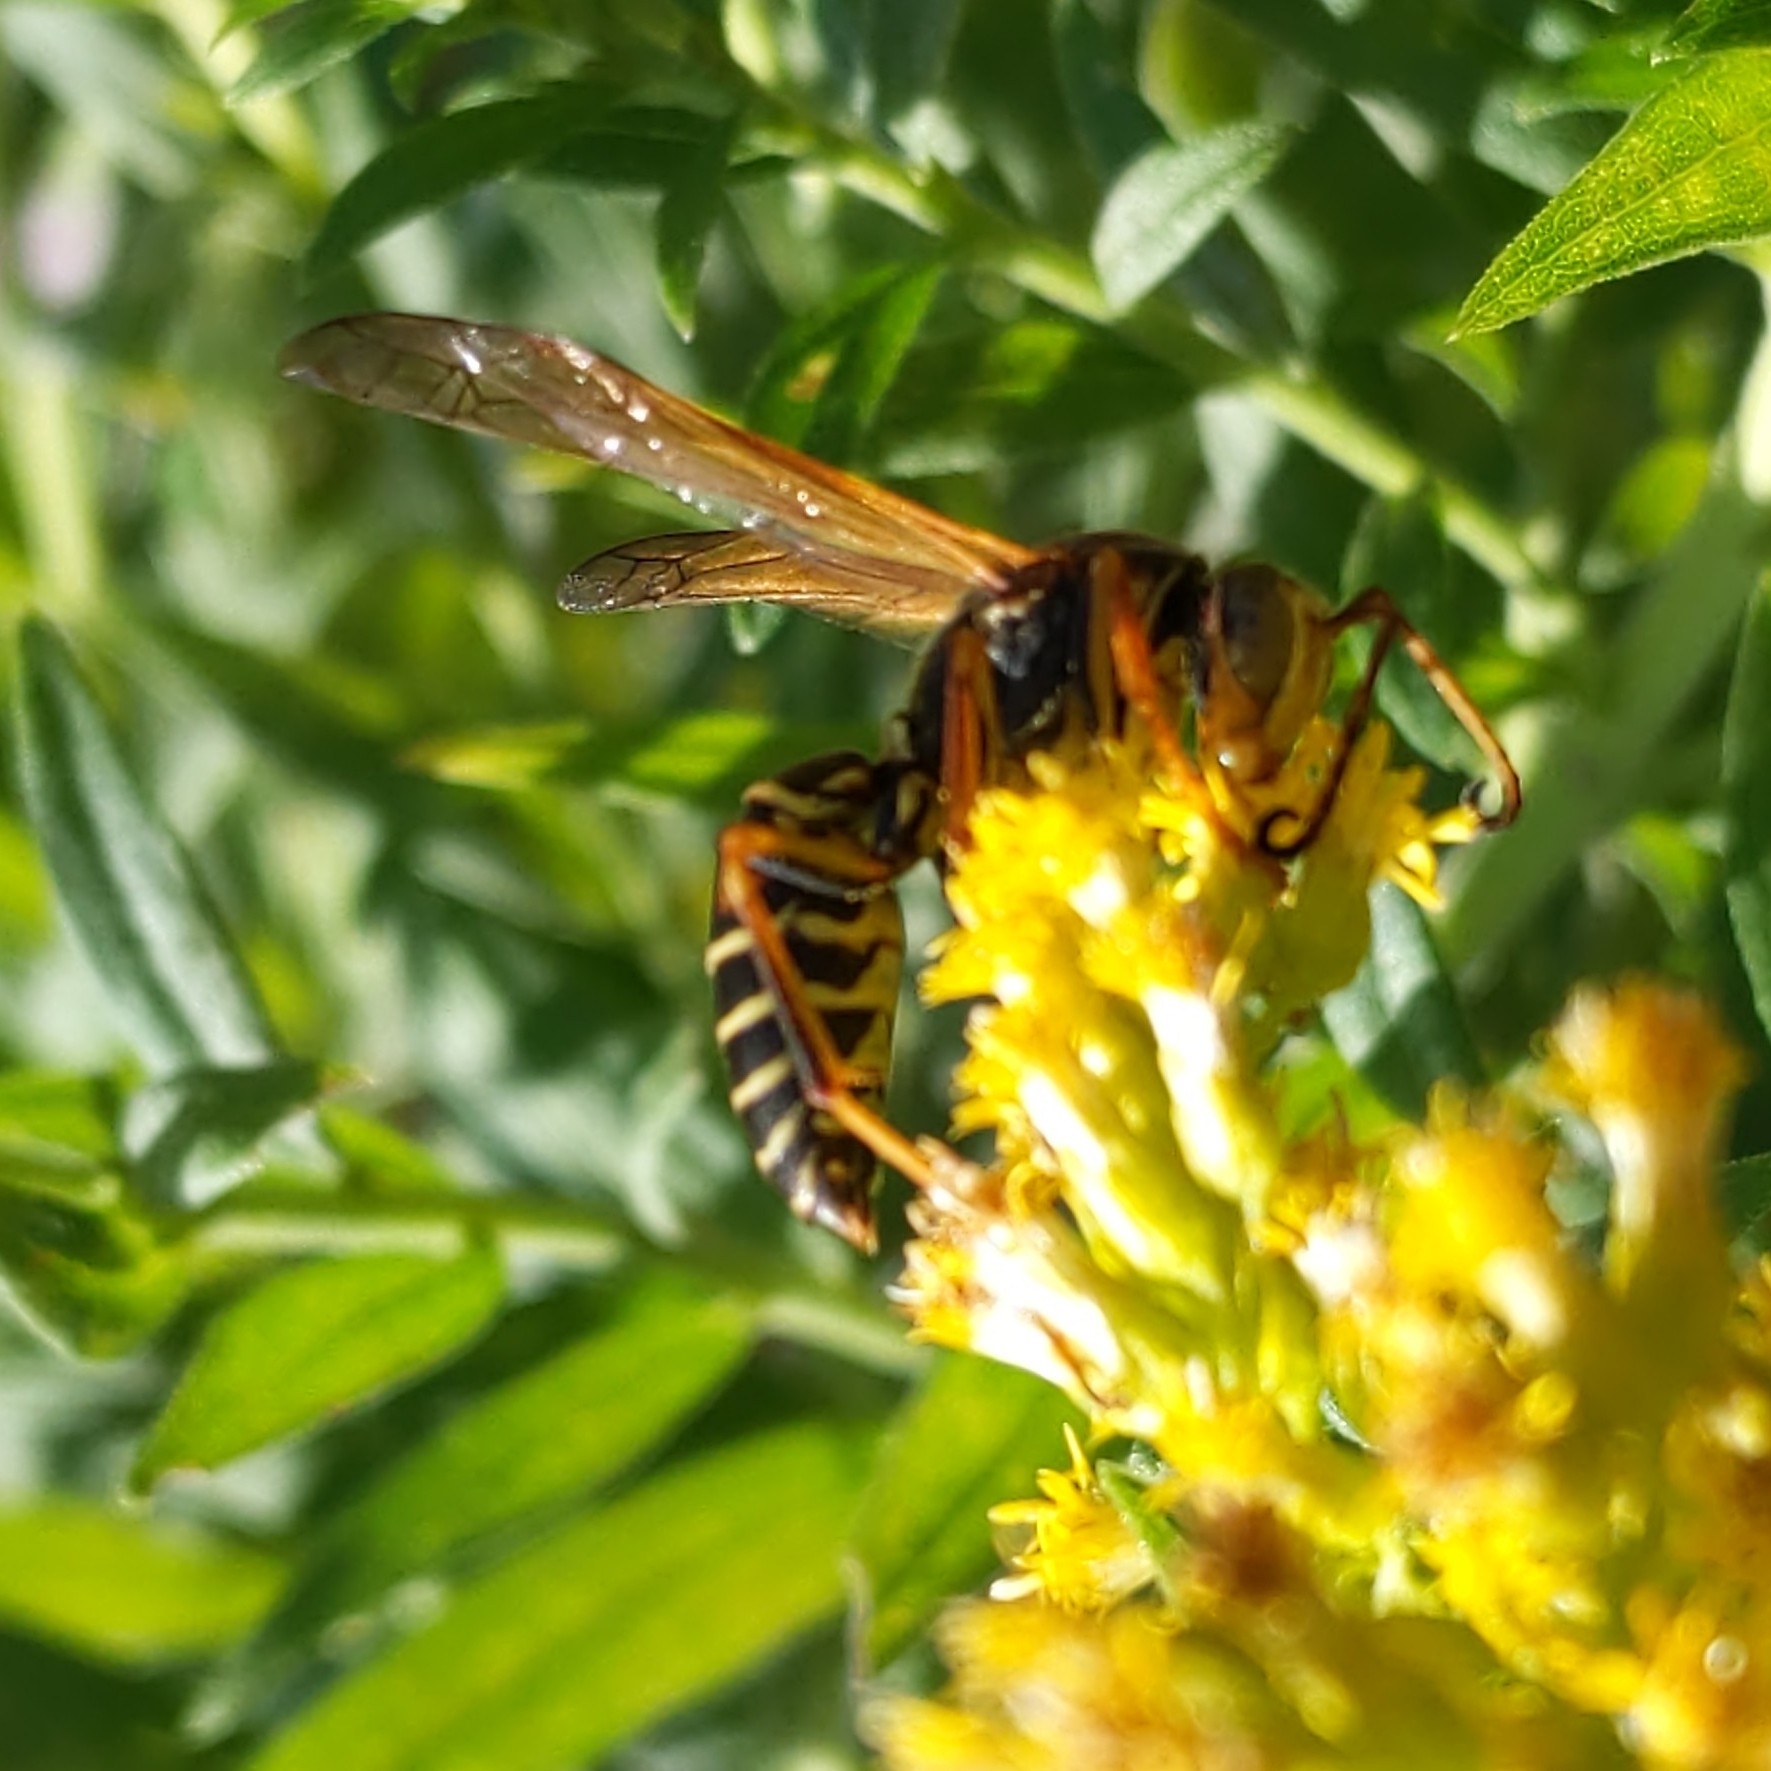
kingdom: Animalia
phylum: Arthropoda
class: Insecta
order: Hymenoptera
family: Eumenidae
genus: Polistes
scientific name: Polistes fuscatus
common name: Dark paper wasp
